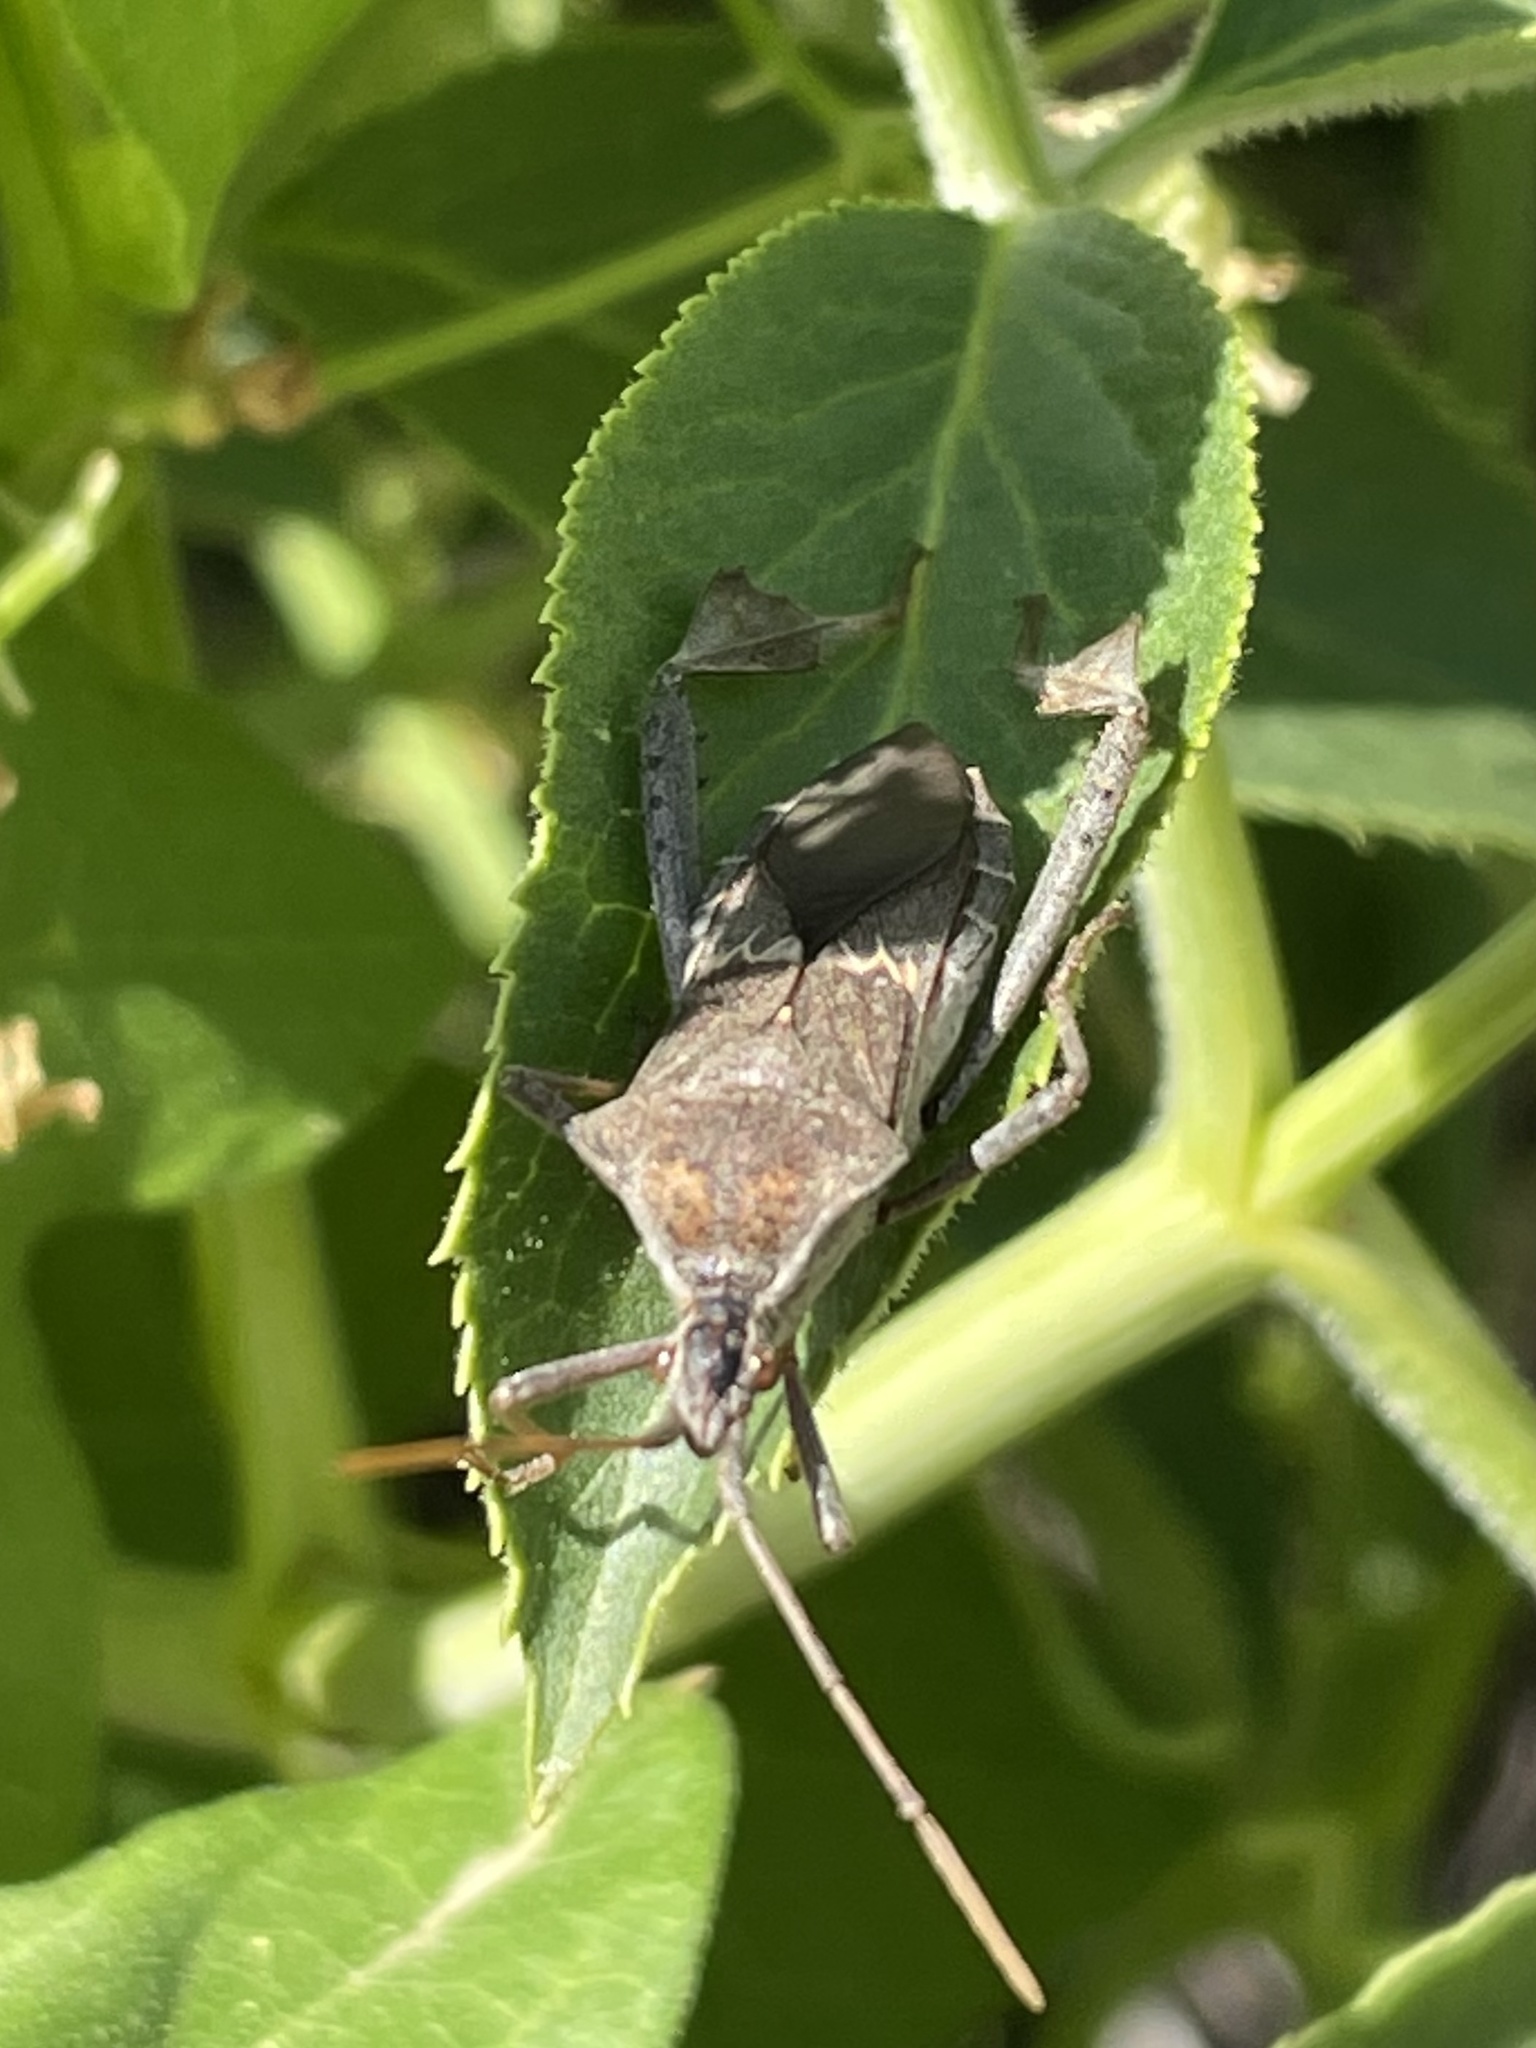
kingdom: Animalia
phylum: Arthropoda
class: Insecta
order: Hemiptera
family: Coreidae
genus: Leptoglossus
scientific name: Leptoglossus zonatus
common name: Large-legged bug
